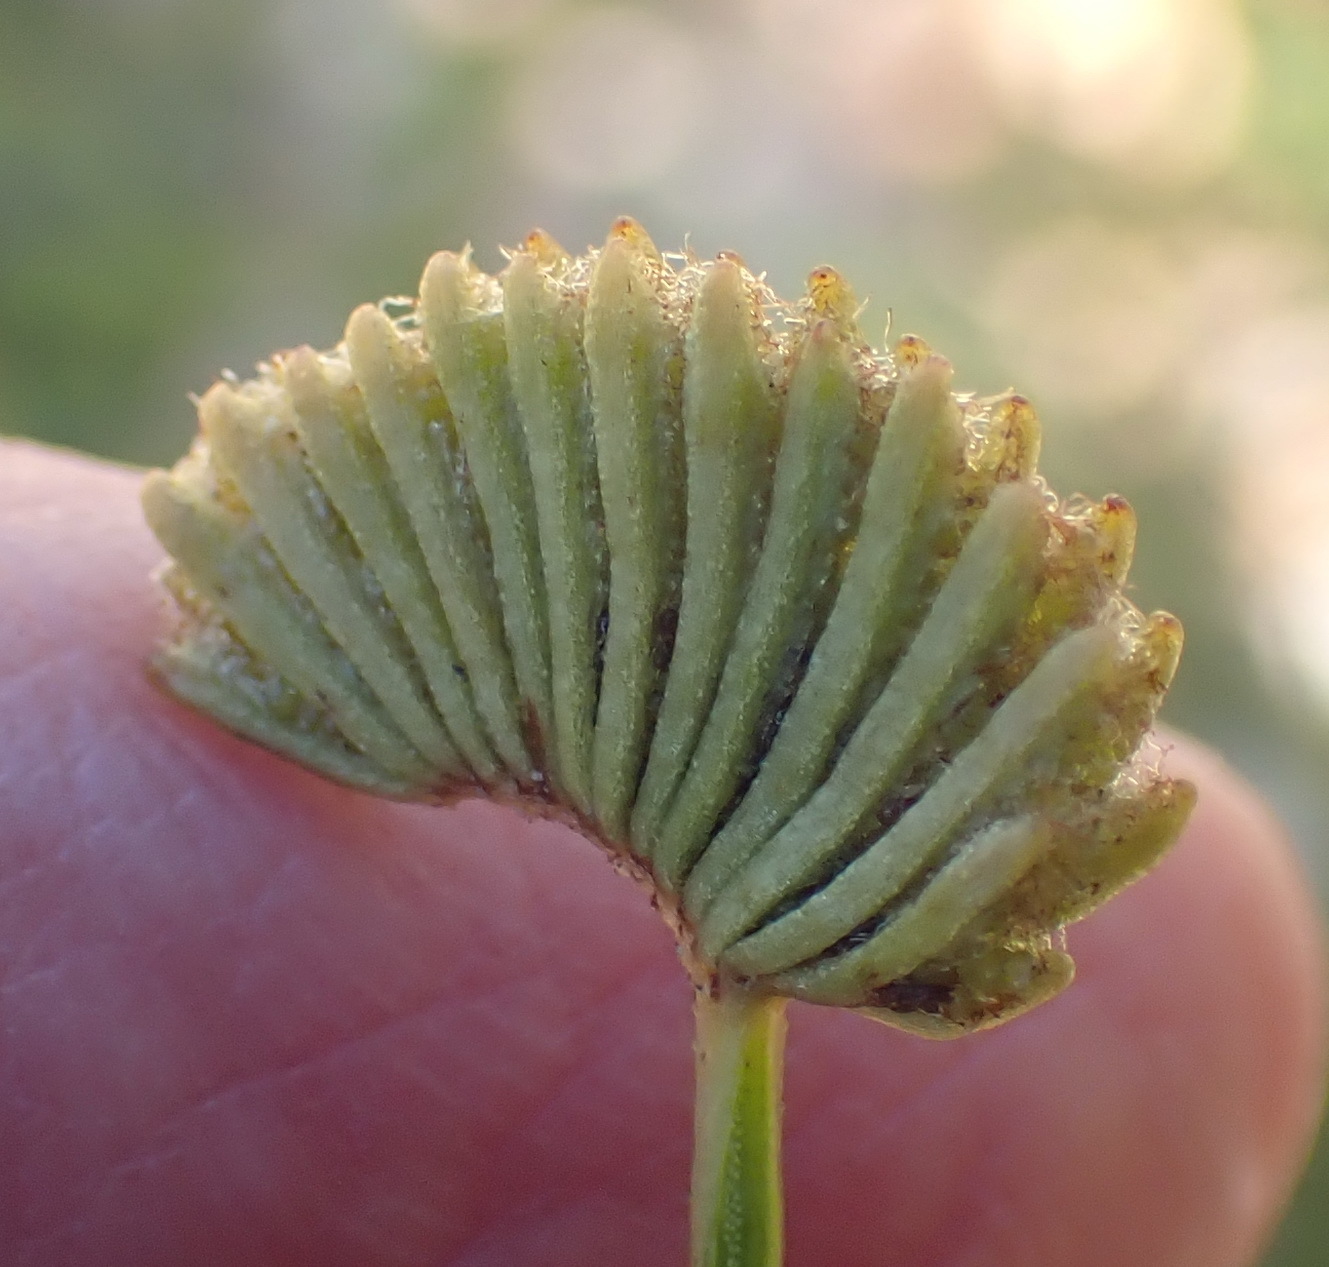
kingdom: Plantae
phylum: Tracheophyta
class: Polypodiopsida
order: Schizaeales
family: Schizaeaceae
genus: Schizaea
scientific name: Schizaea pectinata
